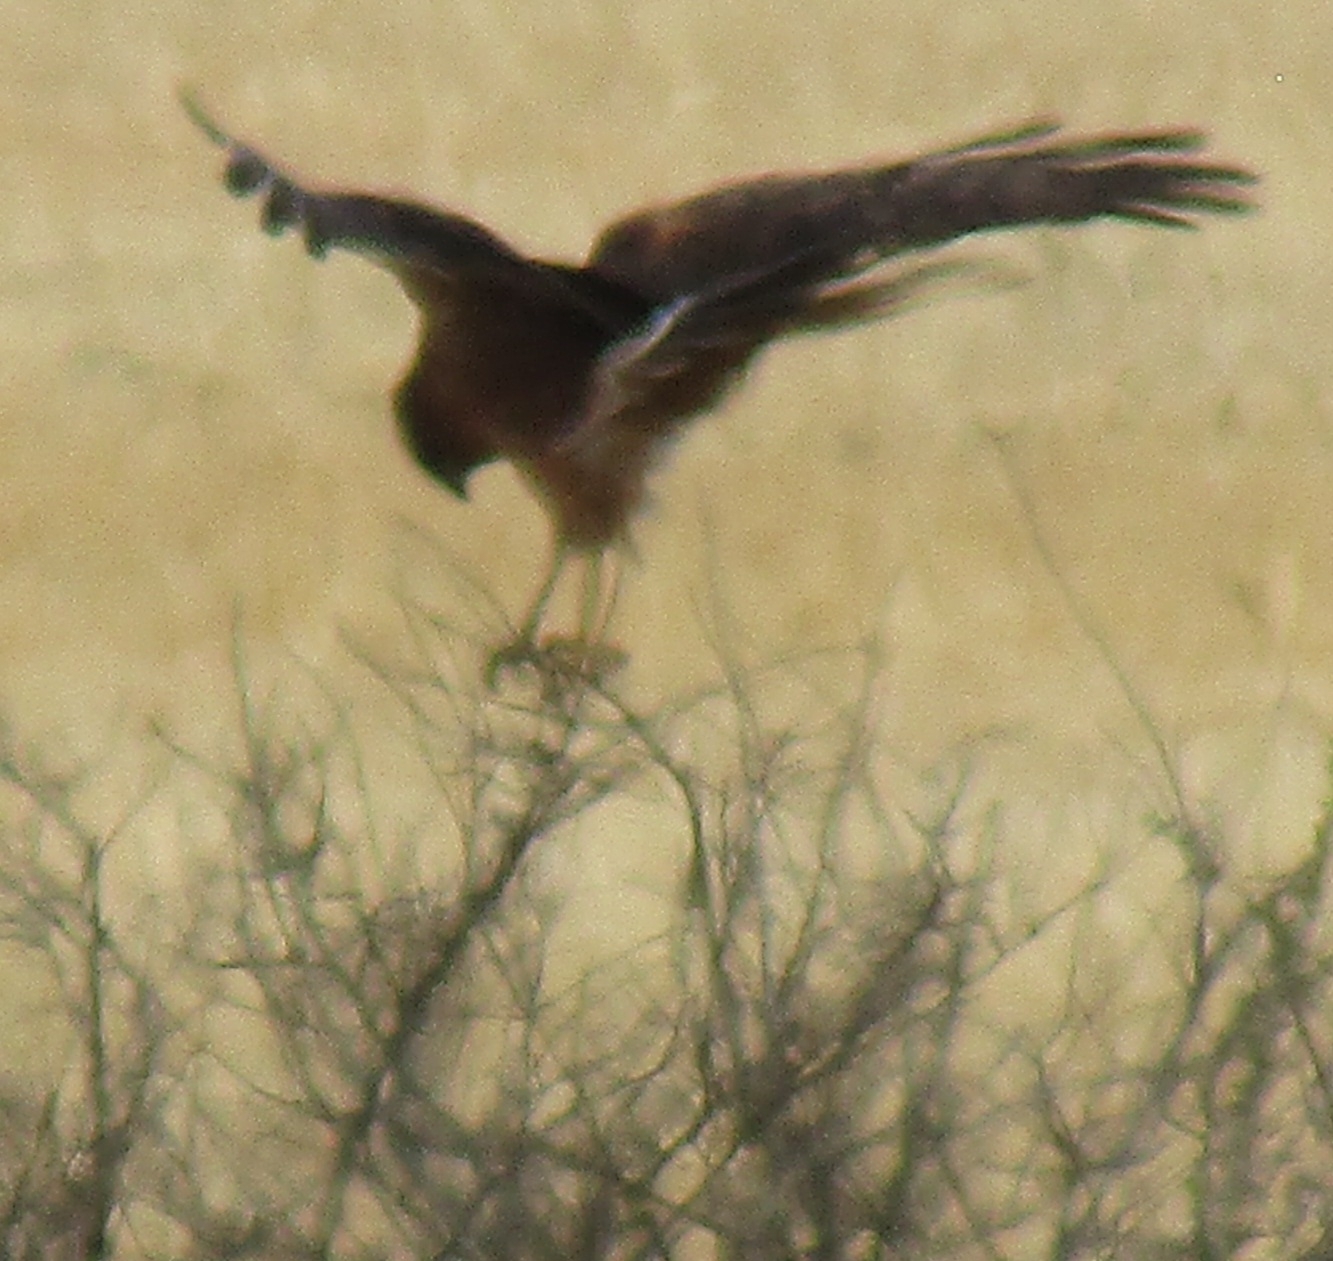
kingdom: Animalia
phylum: Chordata
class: Aves
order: Accipitriformes
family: Accipitridae
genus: Circus
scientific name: Circus cyaneus
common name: Hen harrier
